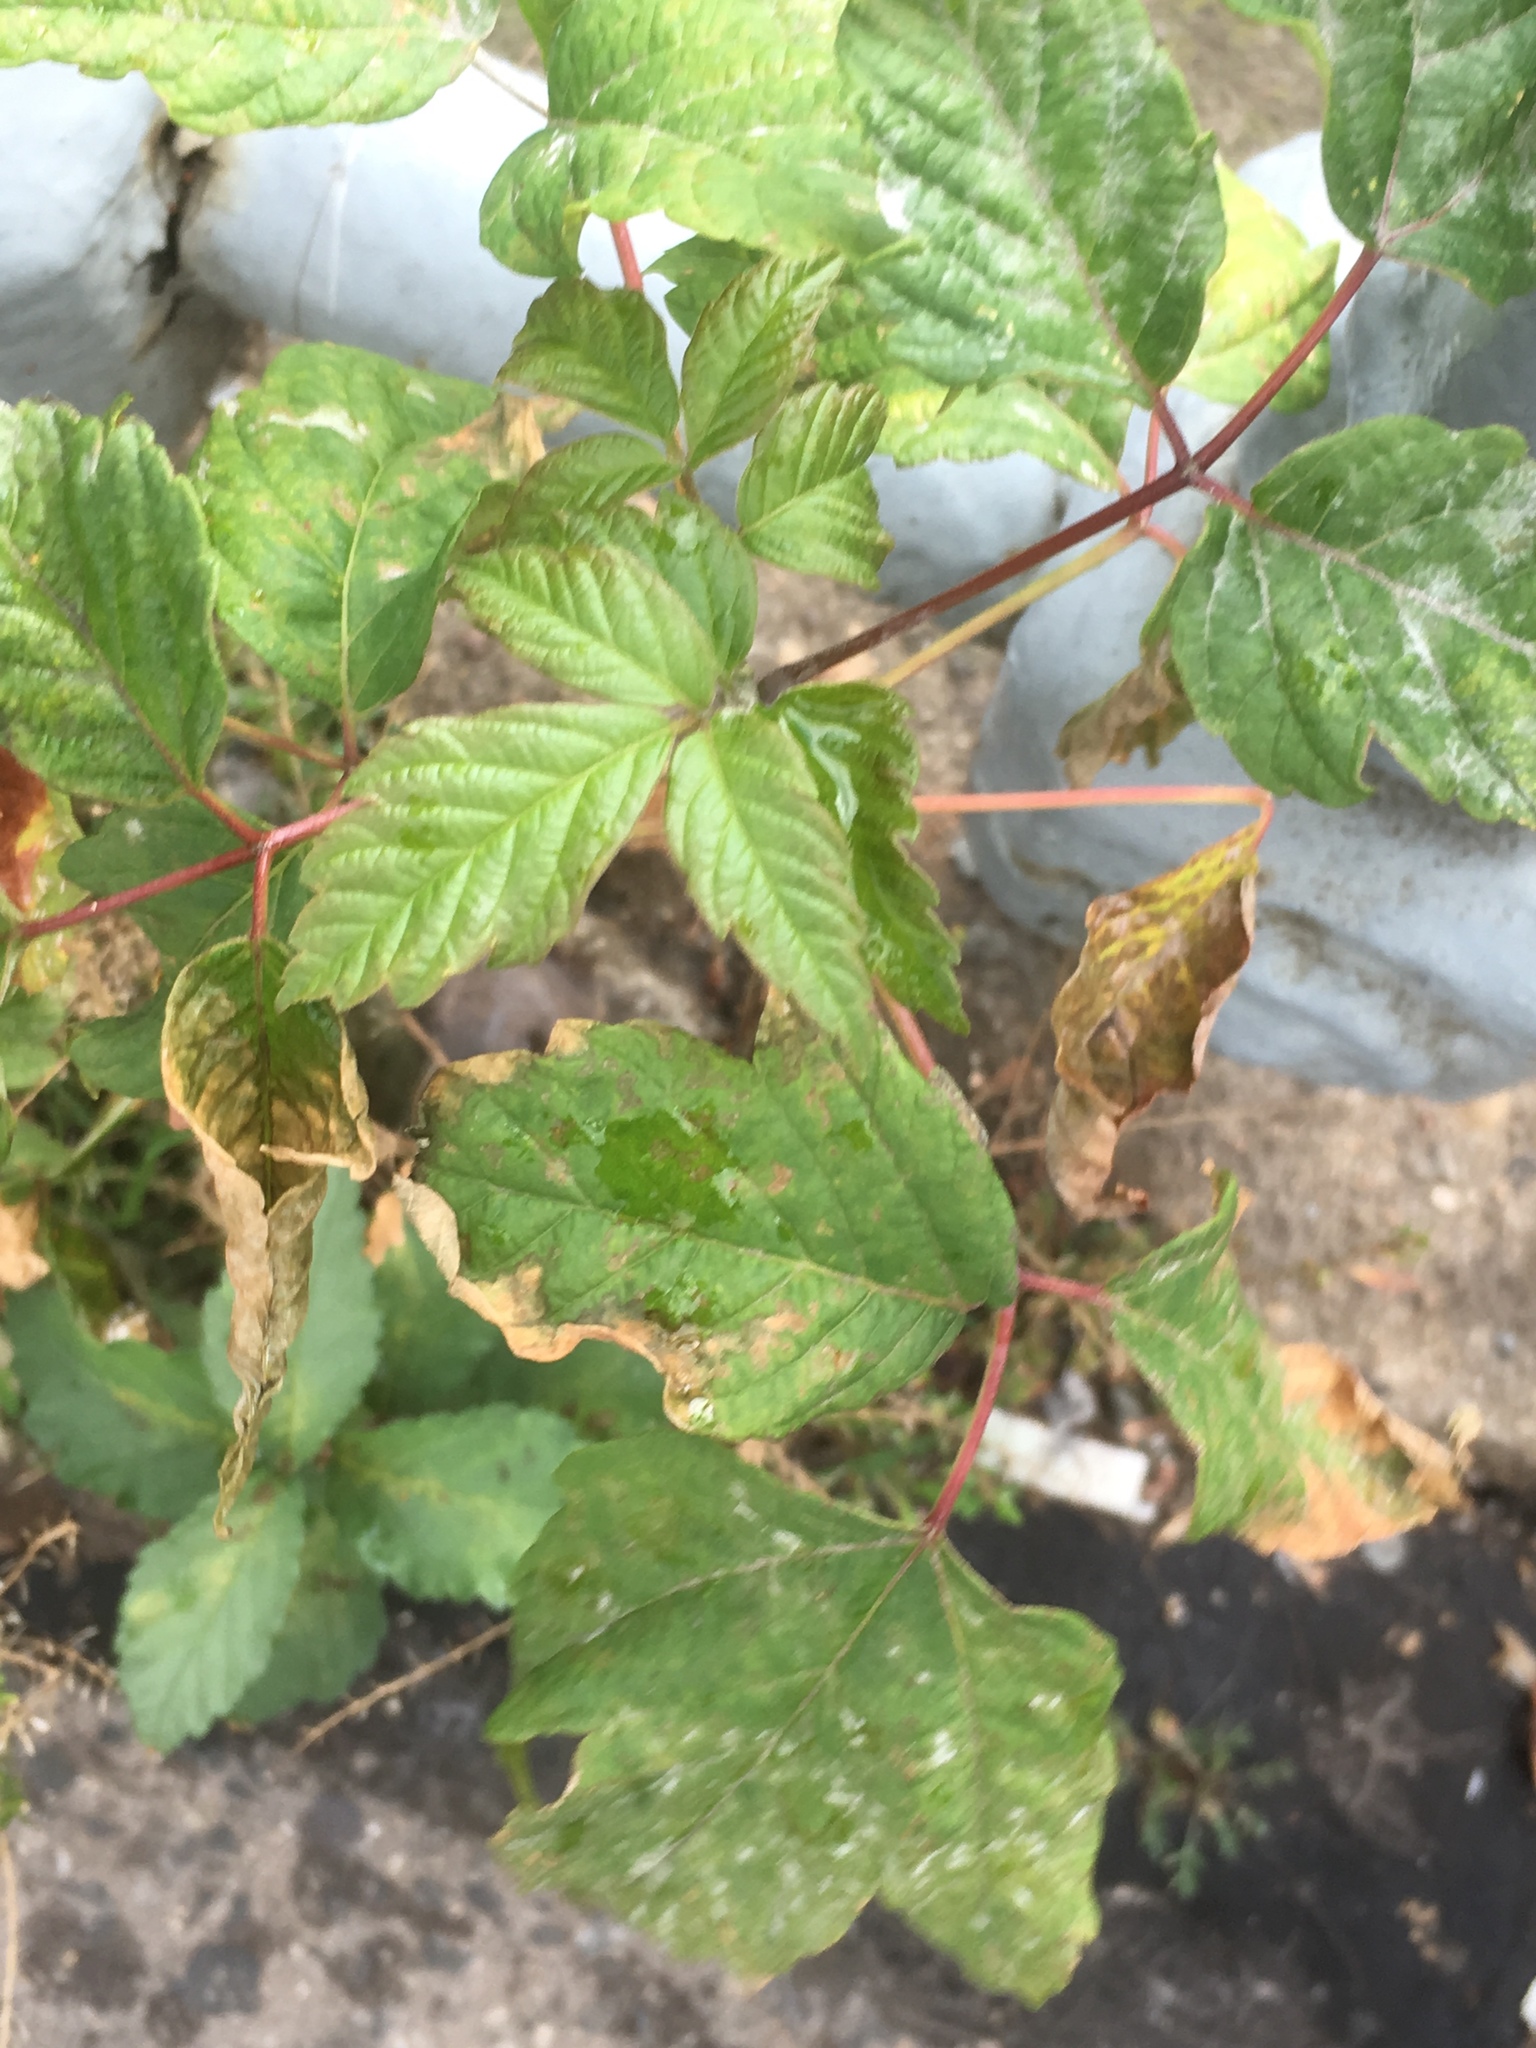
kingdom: Plantae
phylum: Tracheophyta
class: Magnoliopsida
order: Rosales
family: Cannabaceae
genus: Humulus
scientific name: Humulus lupulus
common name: Hop
